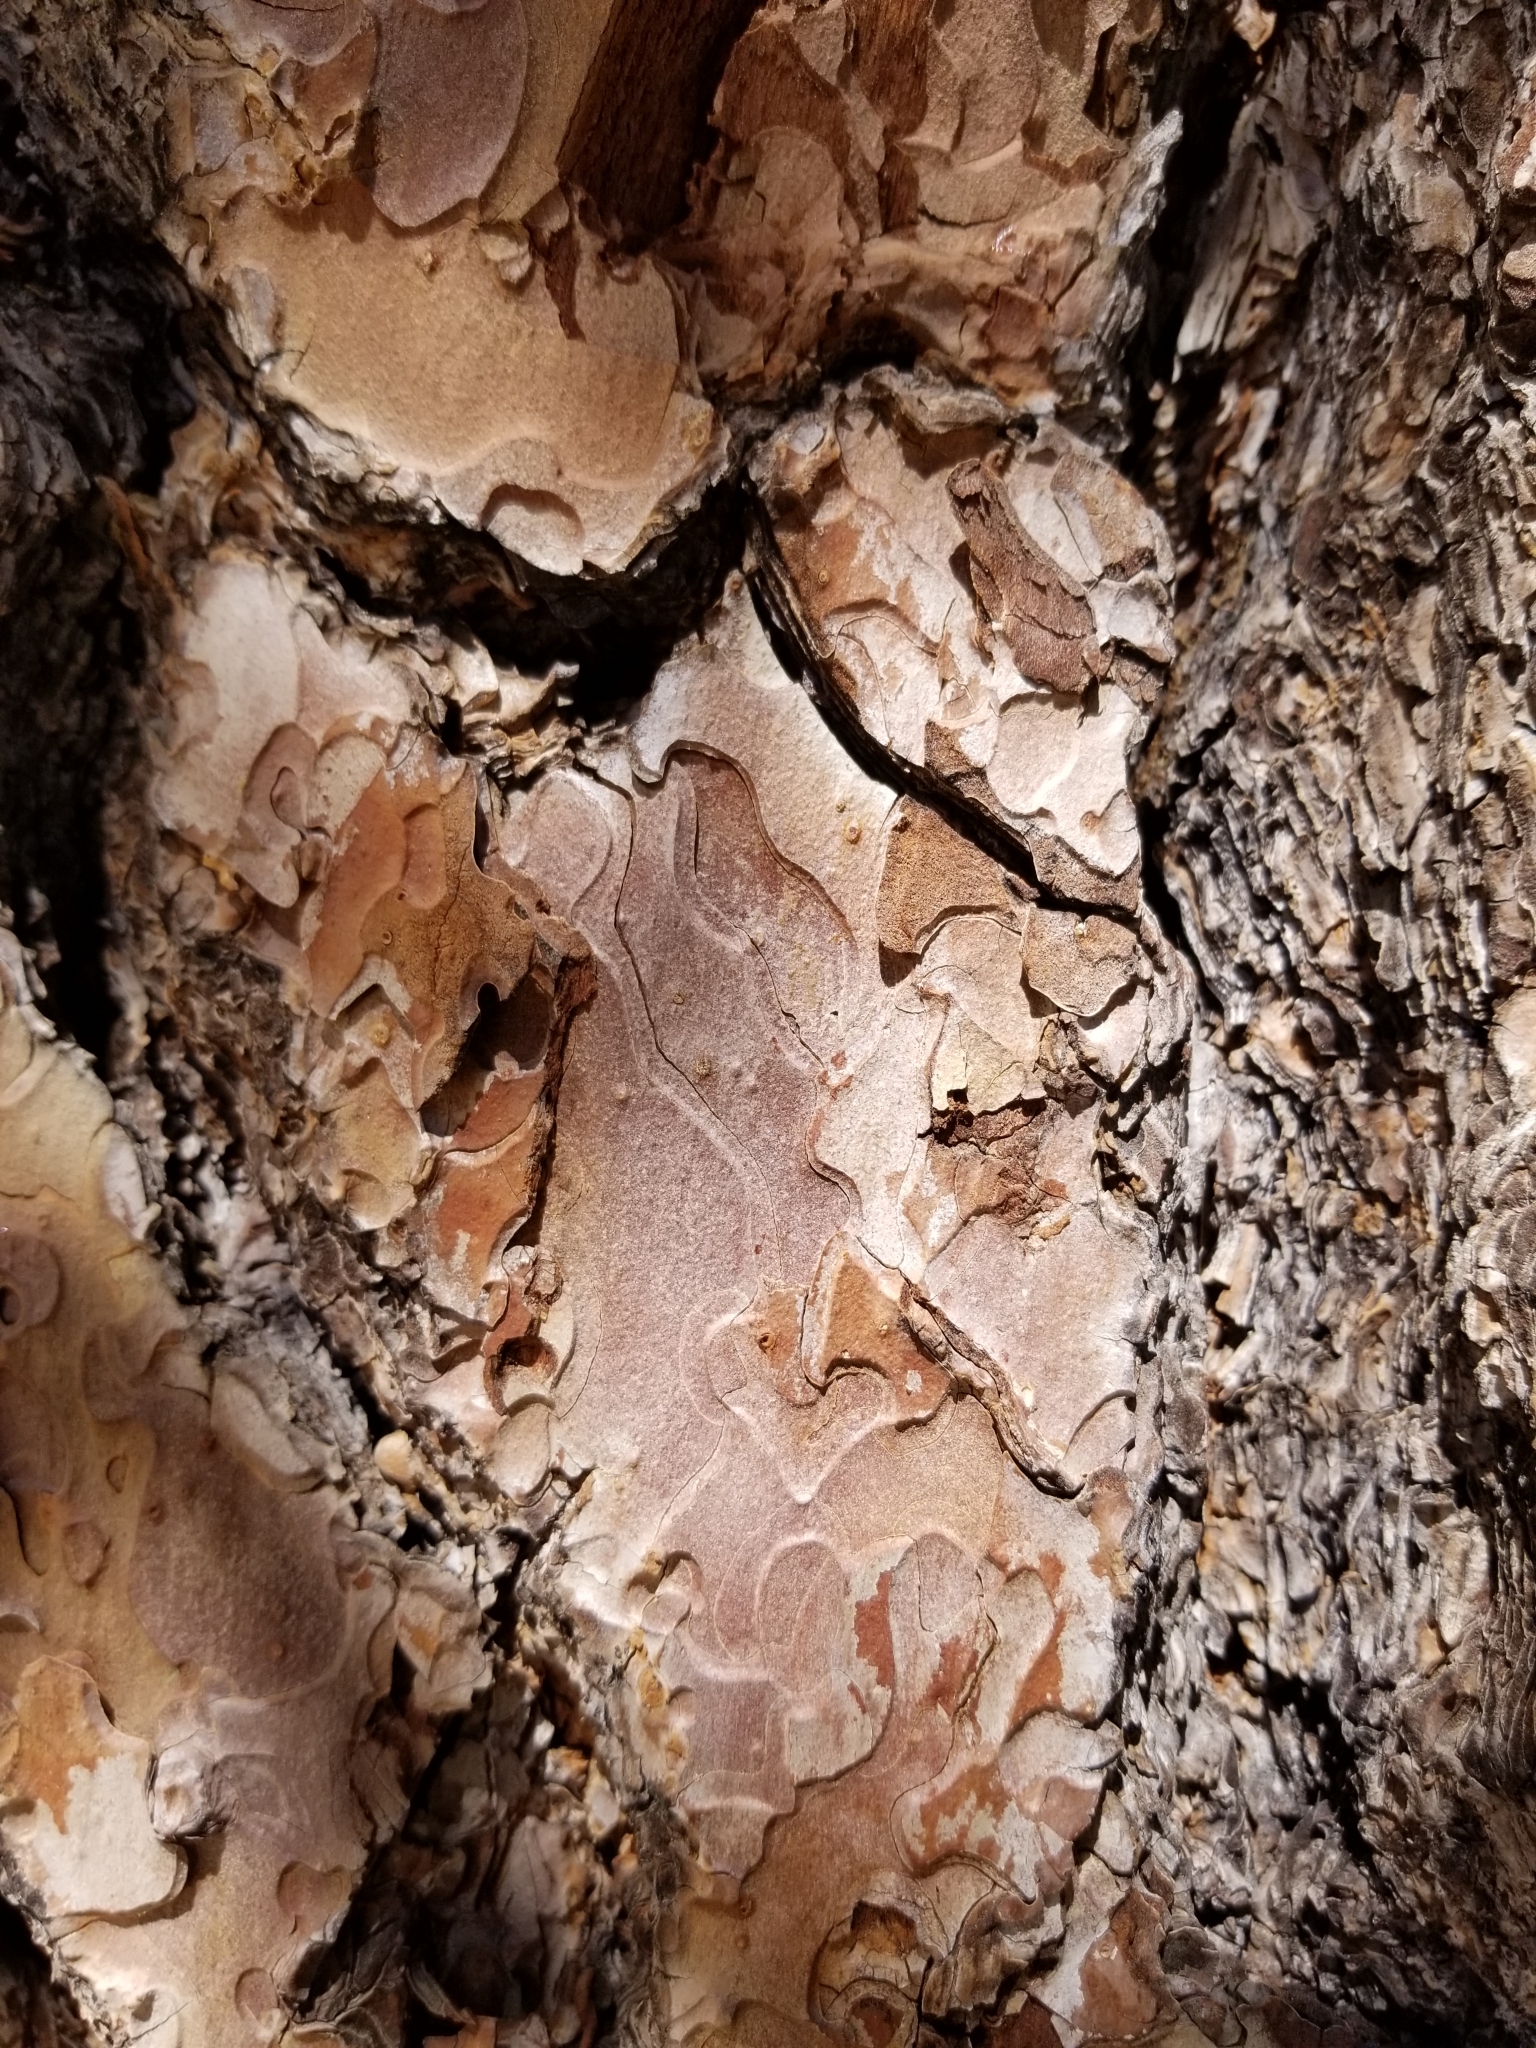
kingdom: Plantae
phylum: Tracheophyta
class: Pinopsida
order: Pinales
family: Pinaceae
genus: Pinus
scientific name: Pinus jeffreyi
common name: Jeffrey pine
